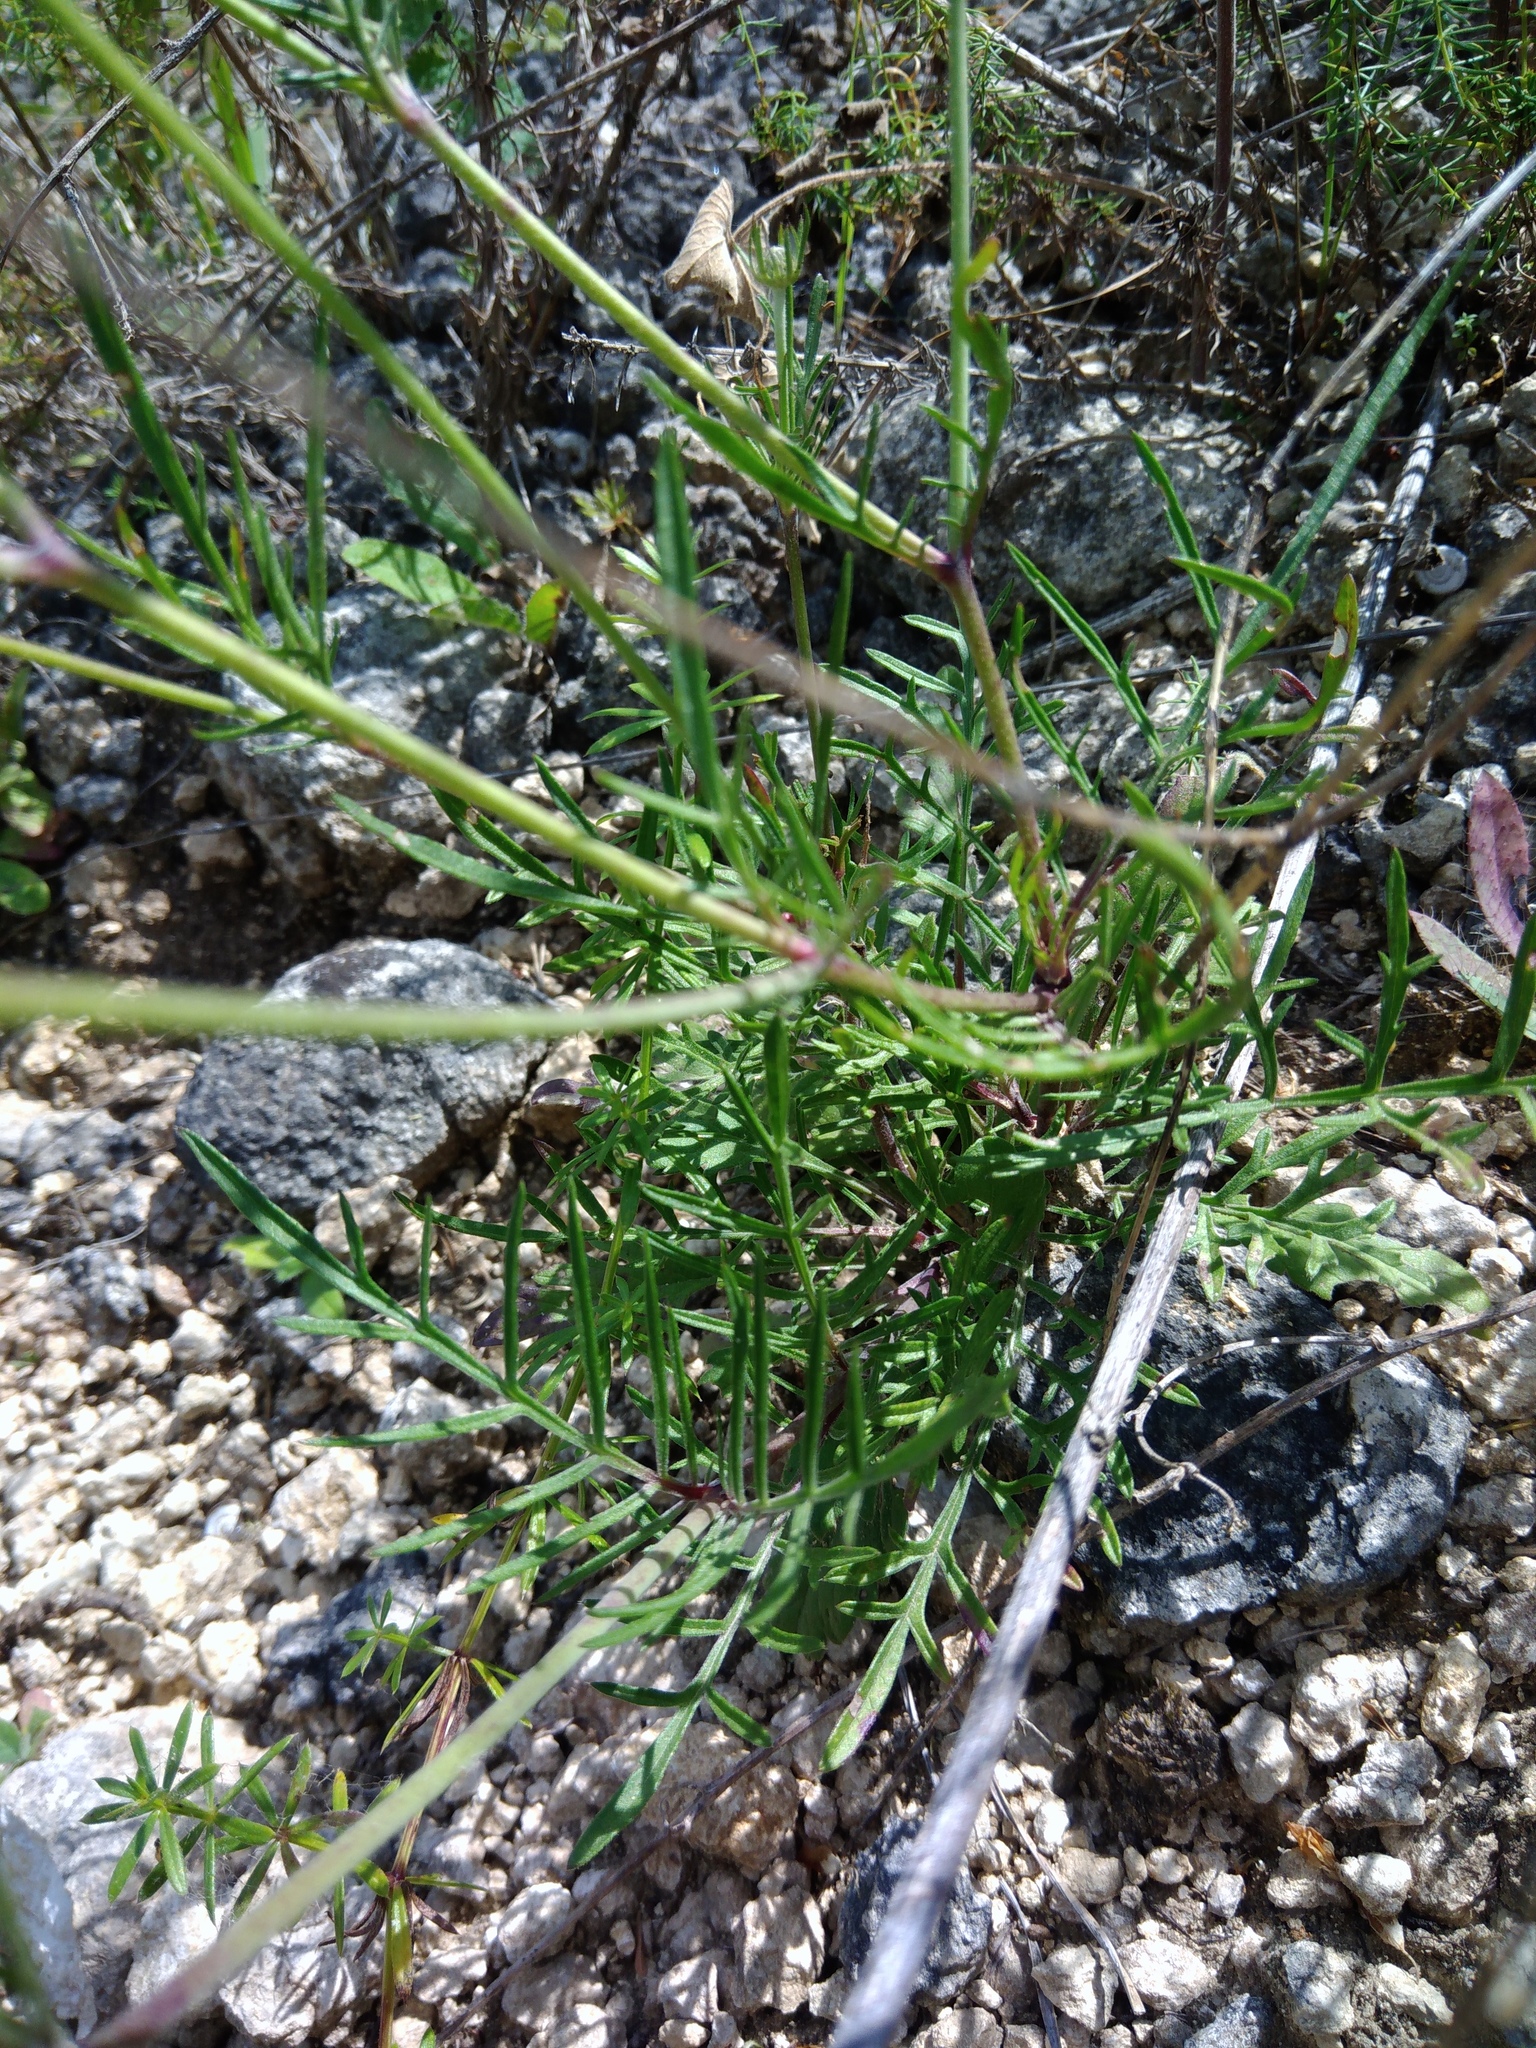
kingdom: Plantae
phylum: Tracheophyta
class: Magnoliopsida
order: Dipsacales
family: Caprifoliaceae
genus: Scabiosa
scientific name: Scabiosa ochroleuca
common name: Cream pincushions
